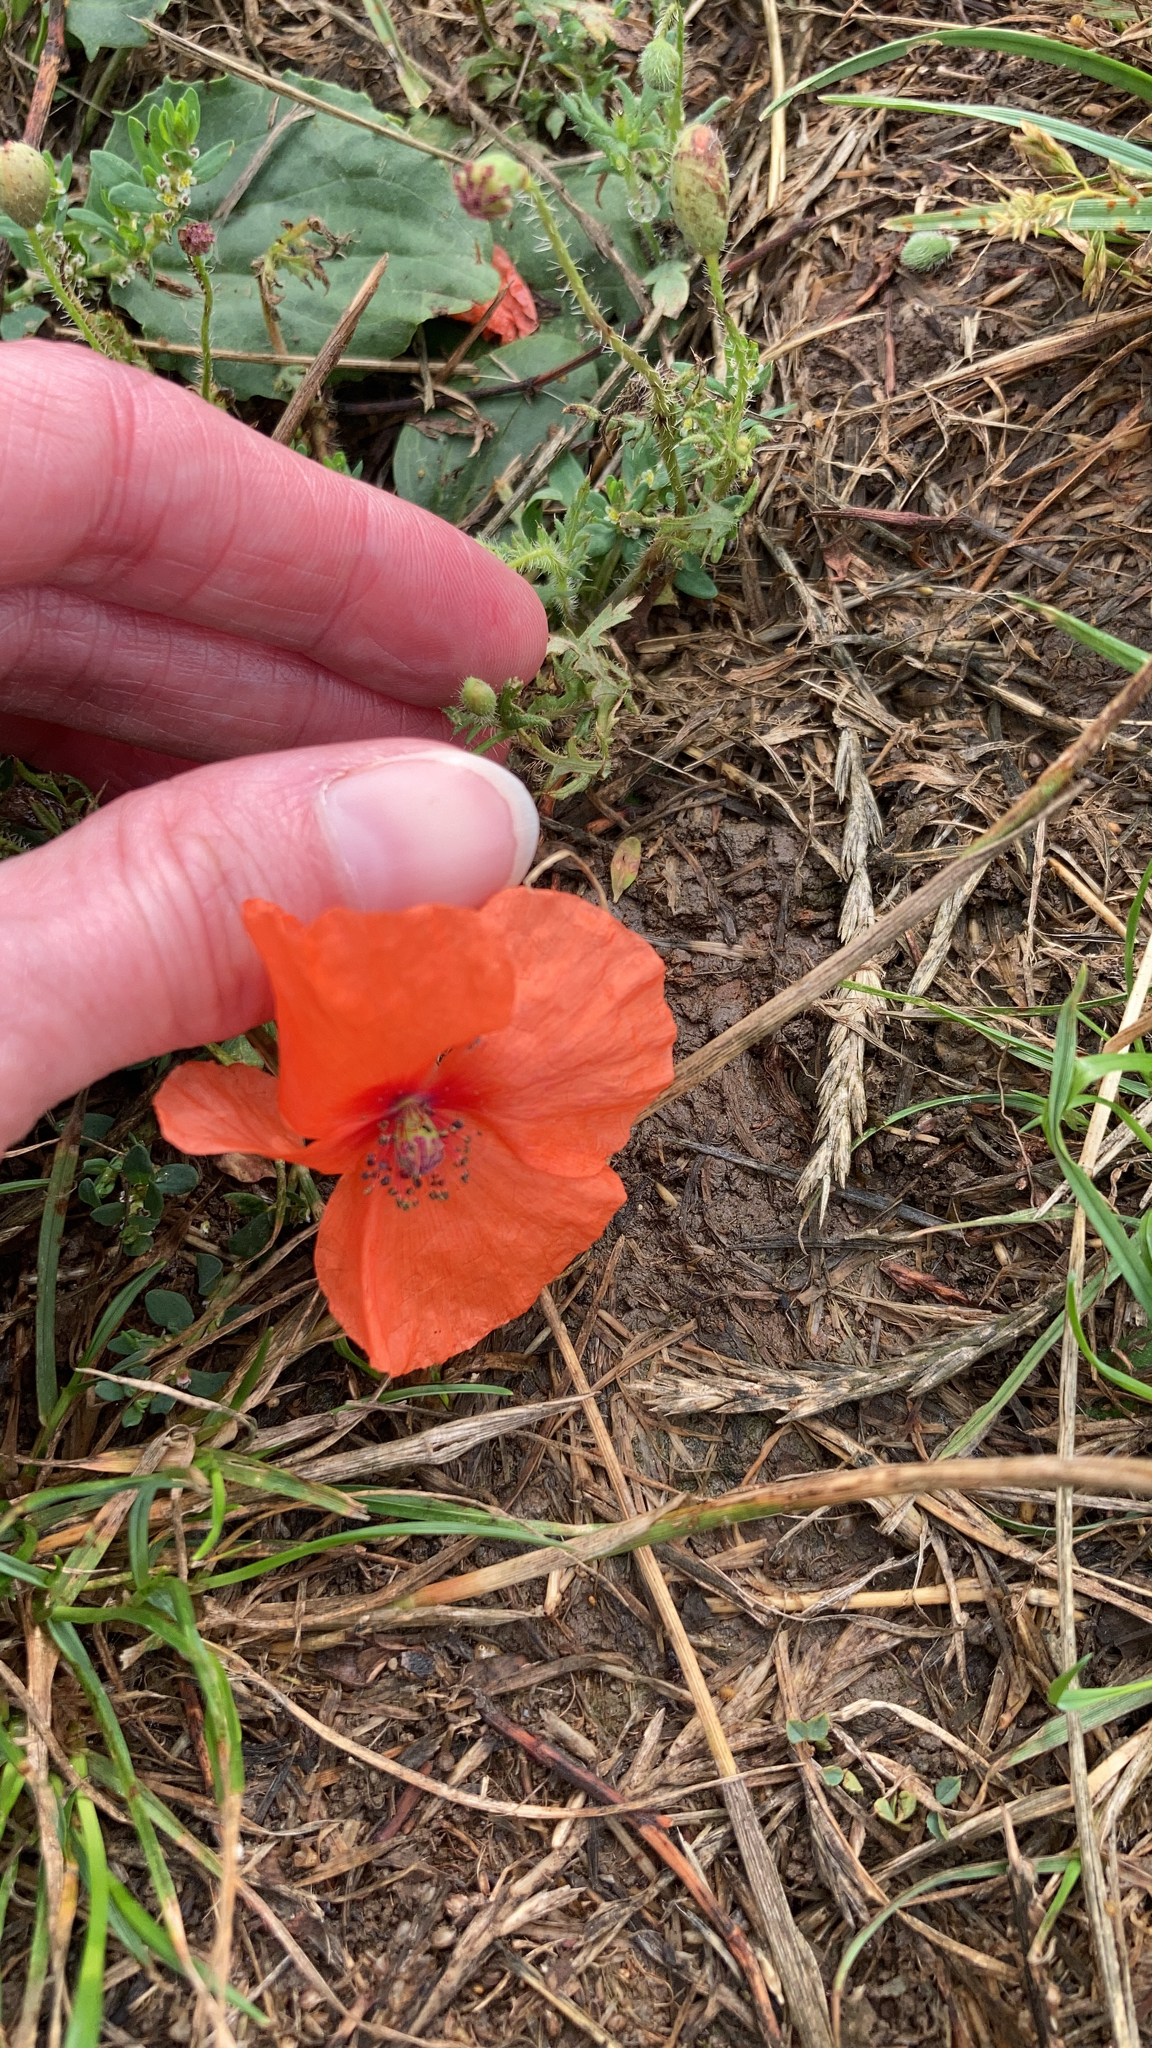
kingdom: Plantae
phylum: Tracheophyta
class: Magnoliopsida
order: Ranunculales
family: Papaveraceae
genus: Papaver
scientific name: Papaver rhoeas
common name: Corn poppy
